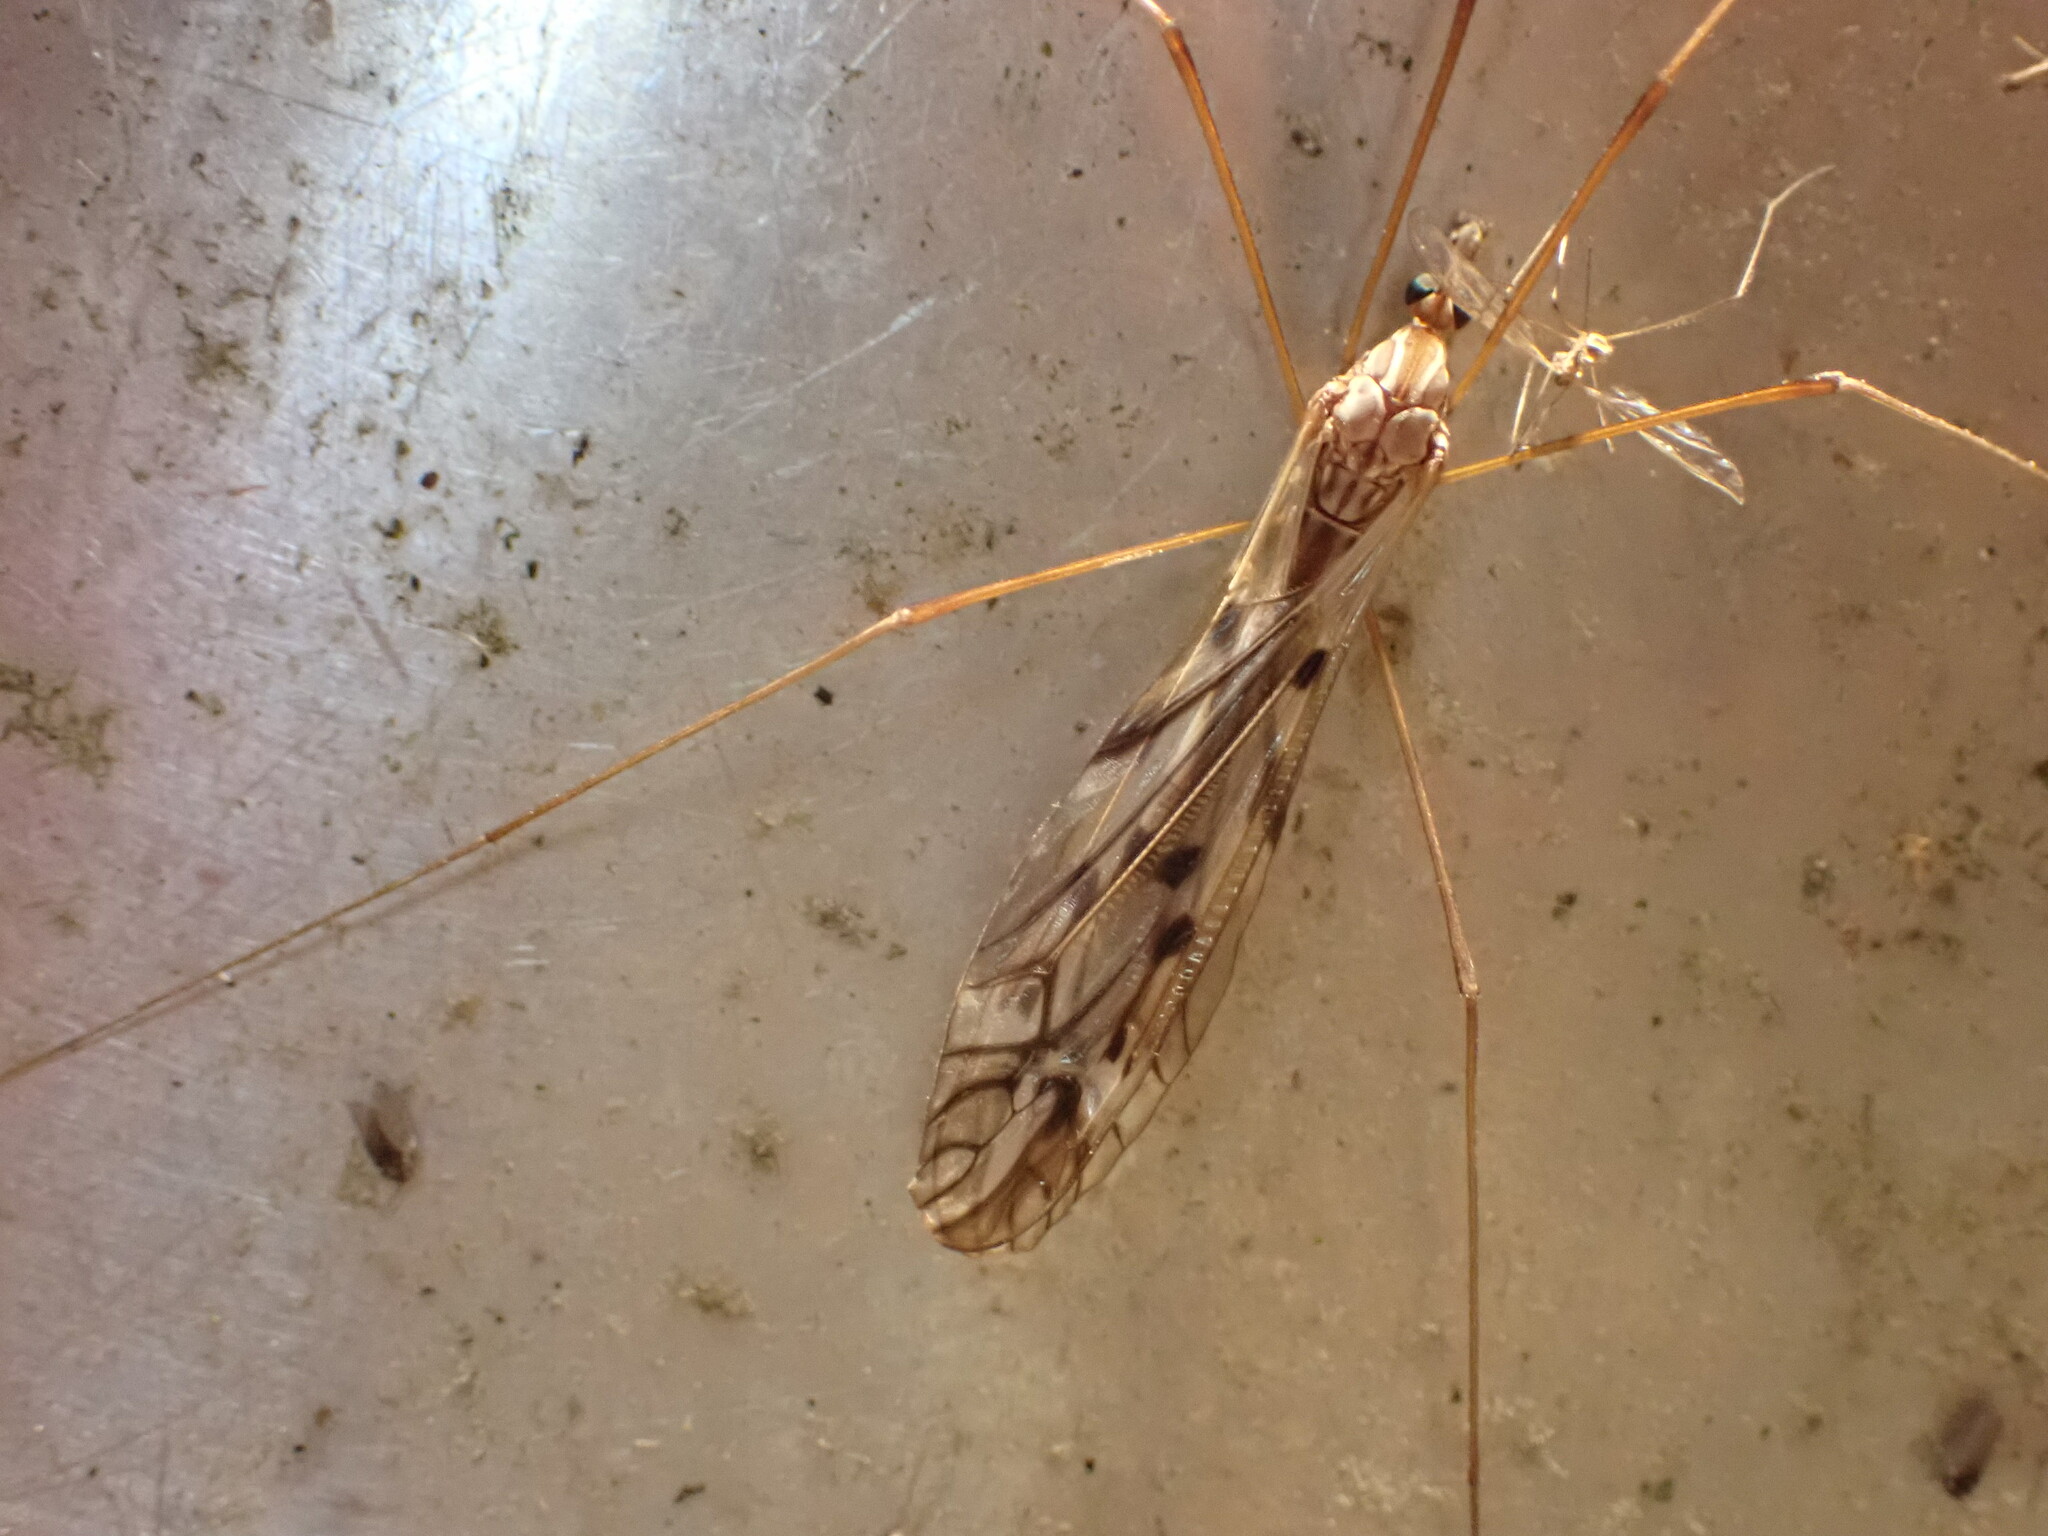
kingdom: Animalia
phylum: Arthropoda
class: Insecta
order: Diptera
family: Tipulidae
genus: Zelandotipula
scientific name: Zelandotipula novarae
